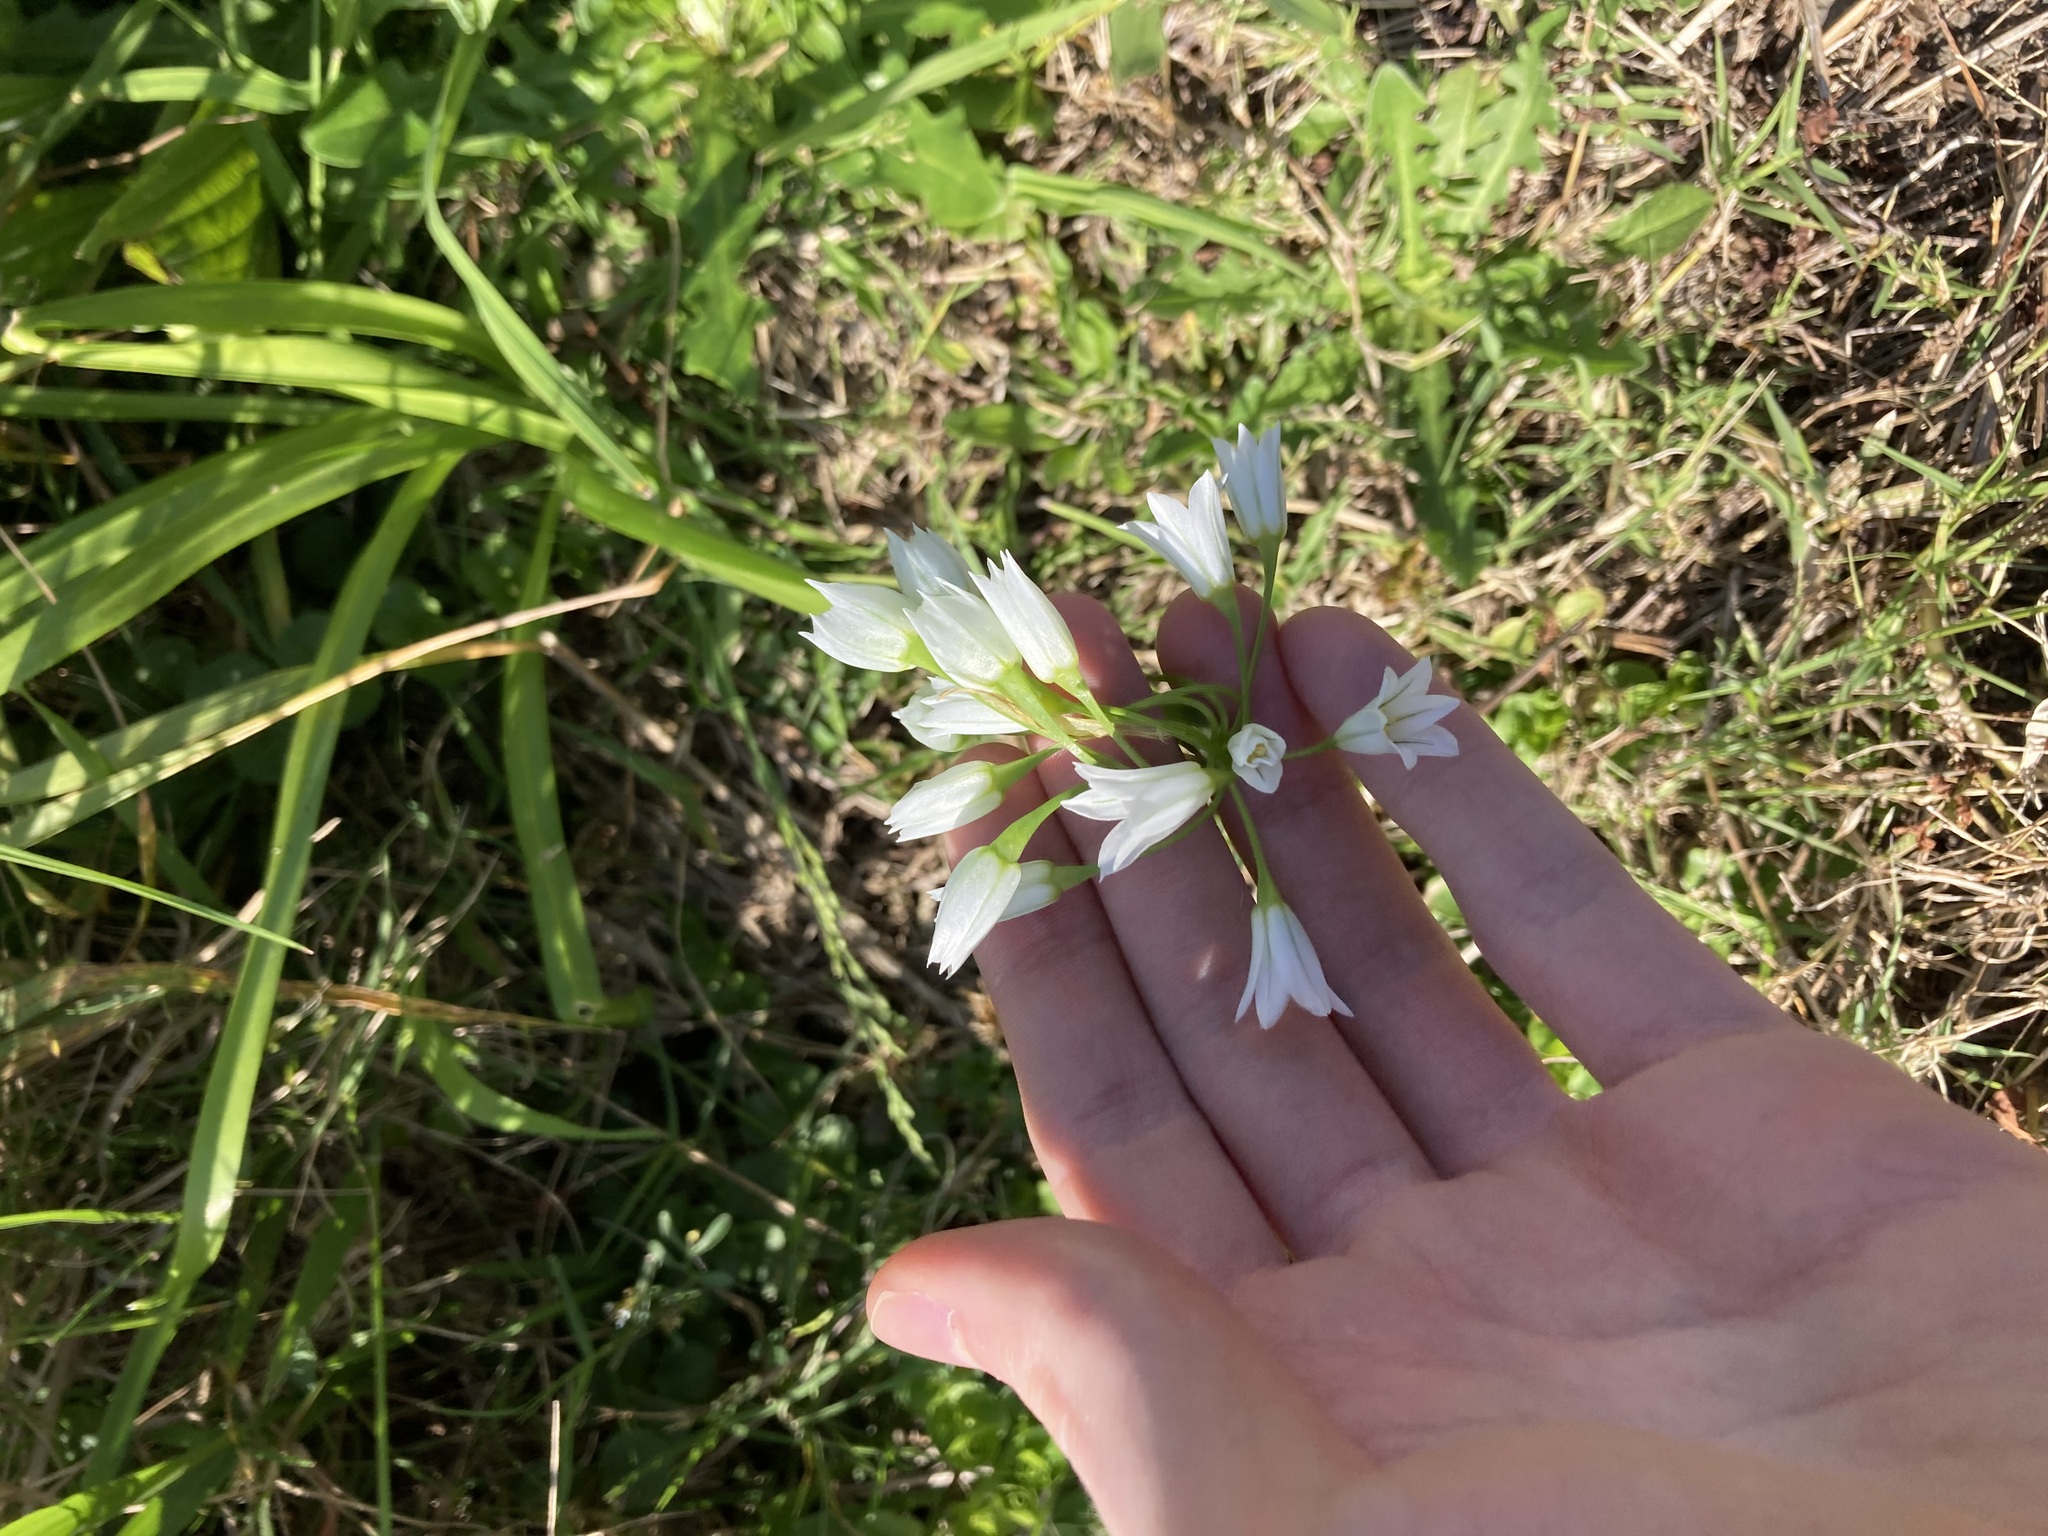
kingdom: Plantae
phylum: Tracheophyta
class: Liliopsida
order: Asparagales
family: Amaryllidaceae
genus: Allium
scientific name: Allium triquetrum
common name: Three-cornered garlic
